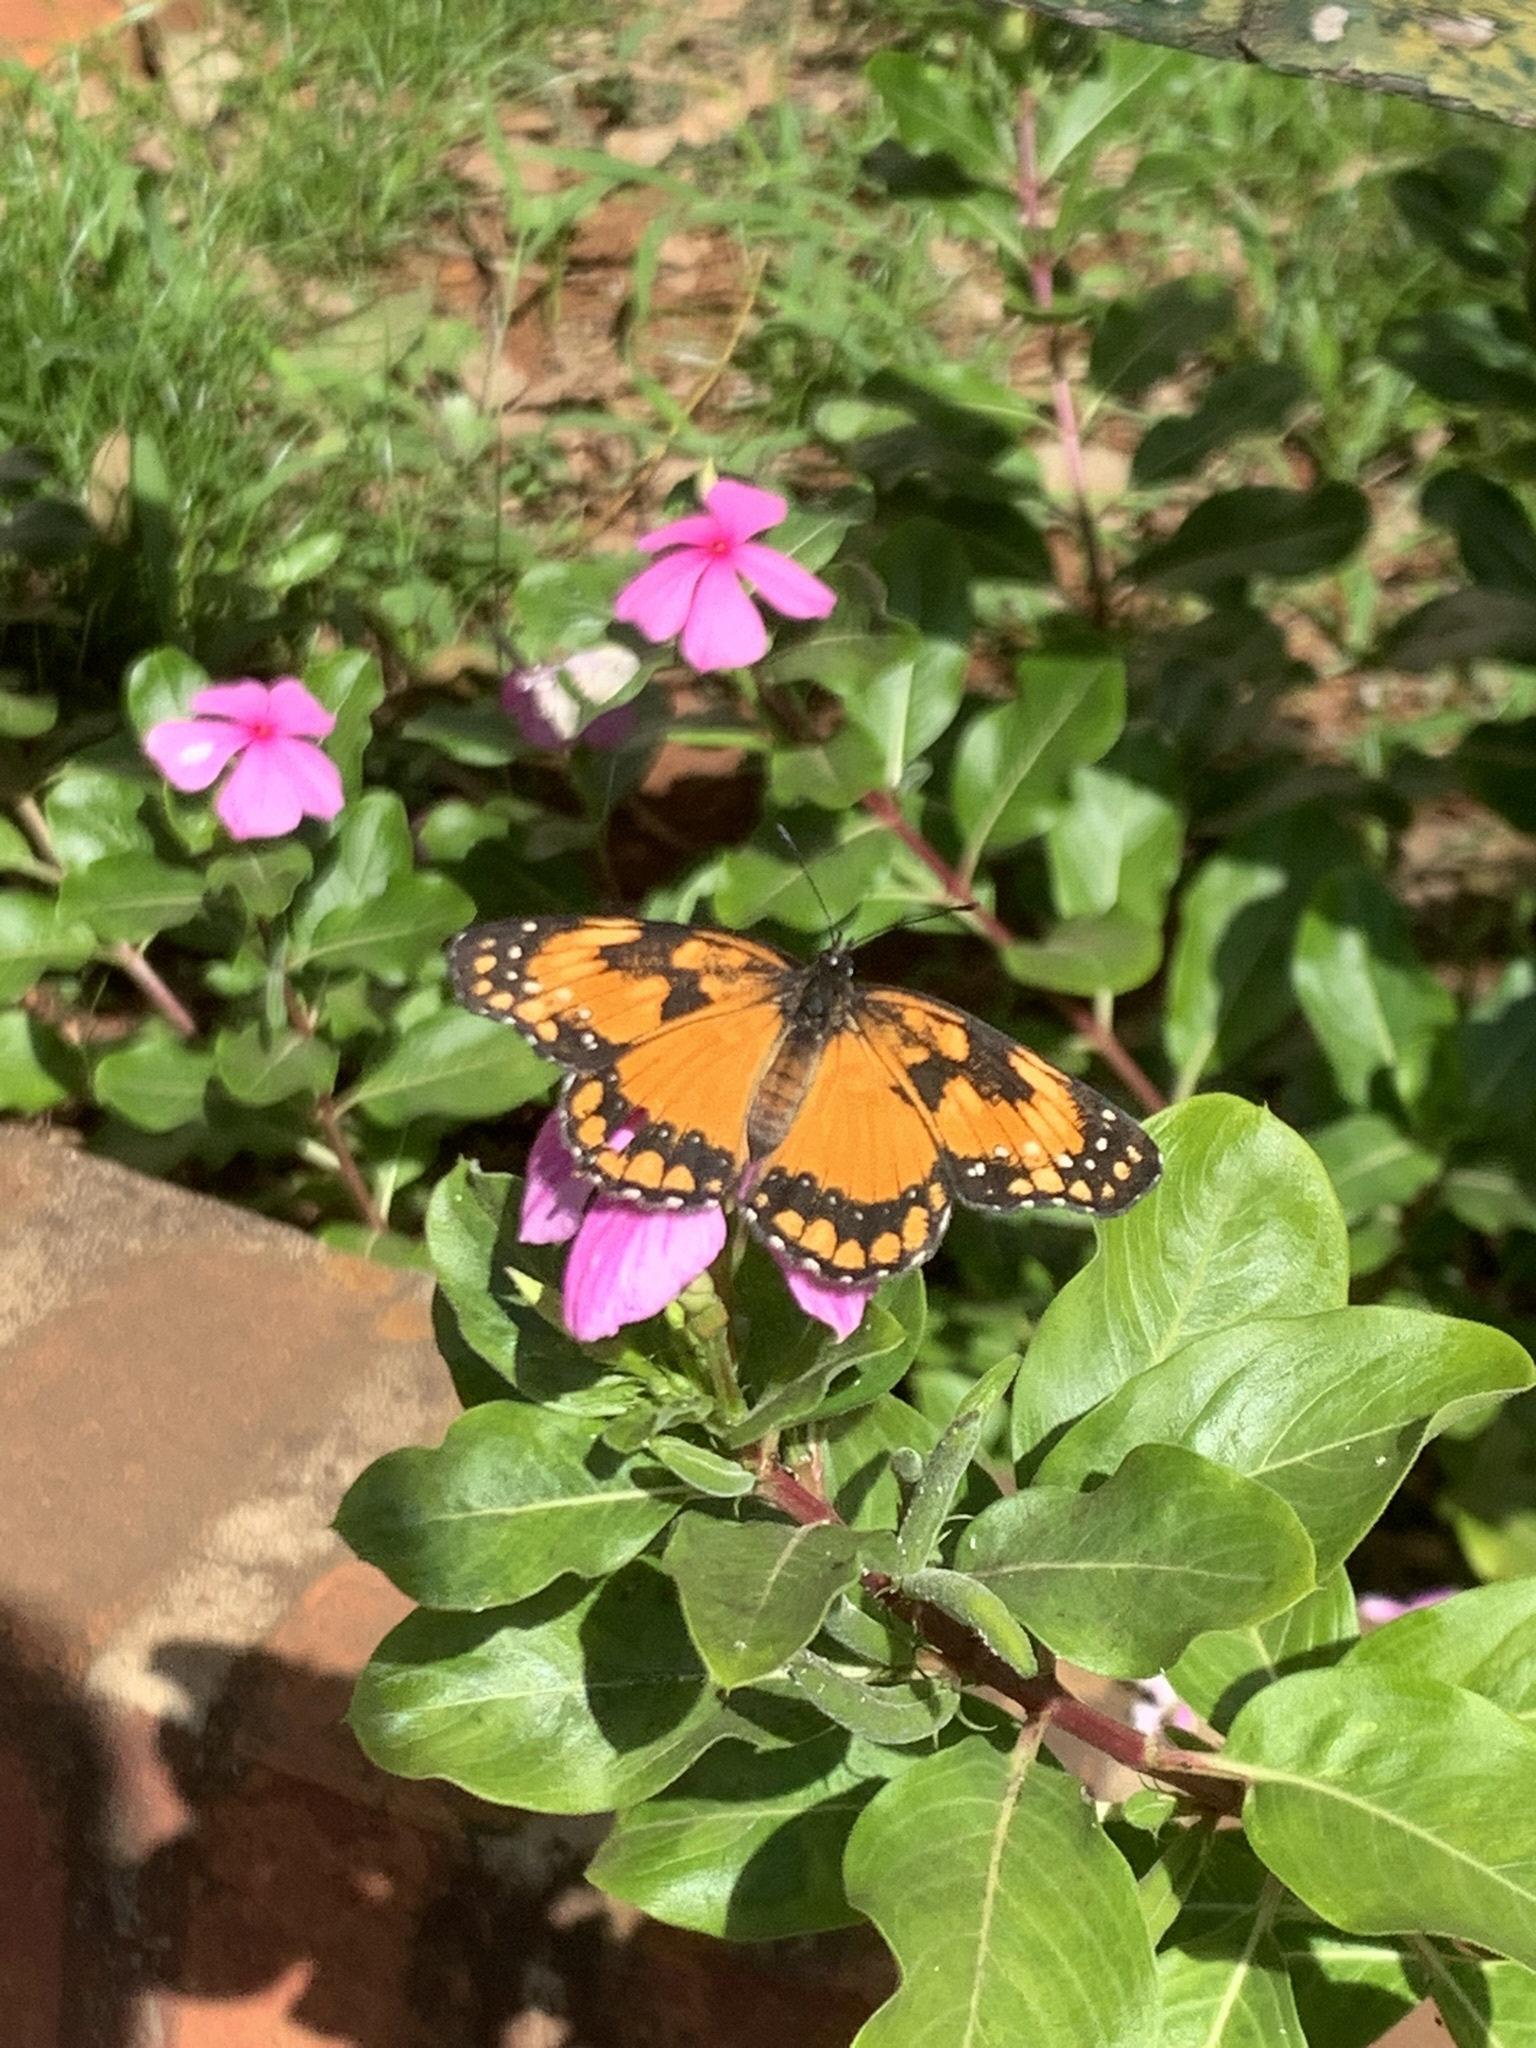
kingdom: Animalia
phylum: Arthropoda
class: Insecta
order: Lepidoptera
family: Nymphalidae
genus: Chlosyne
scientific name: Chlosyne lacinia
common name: Bordered patch
